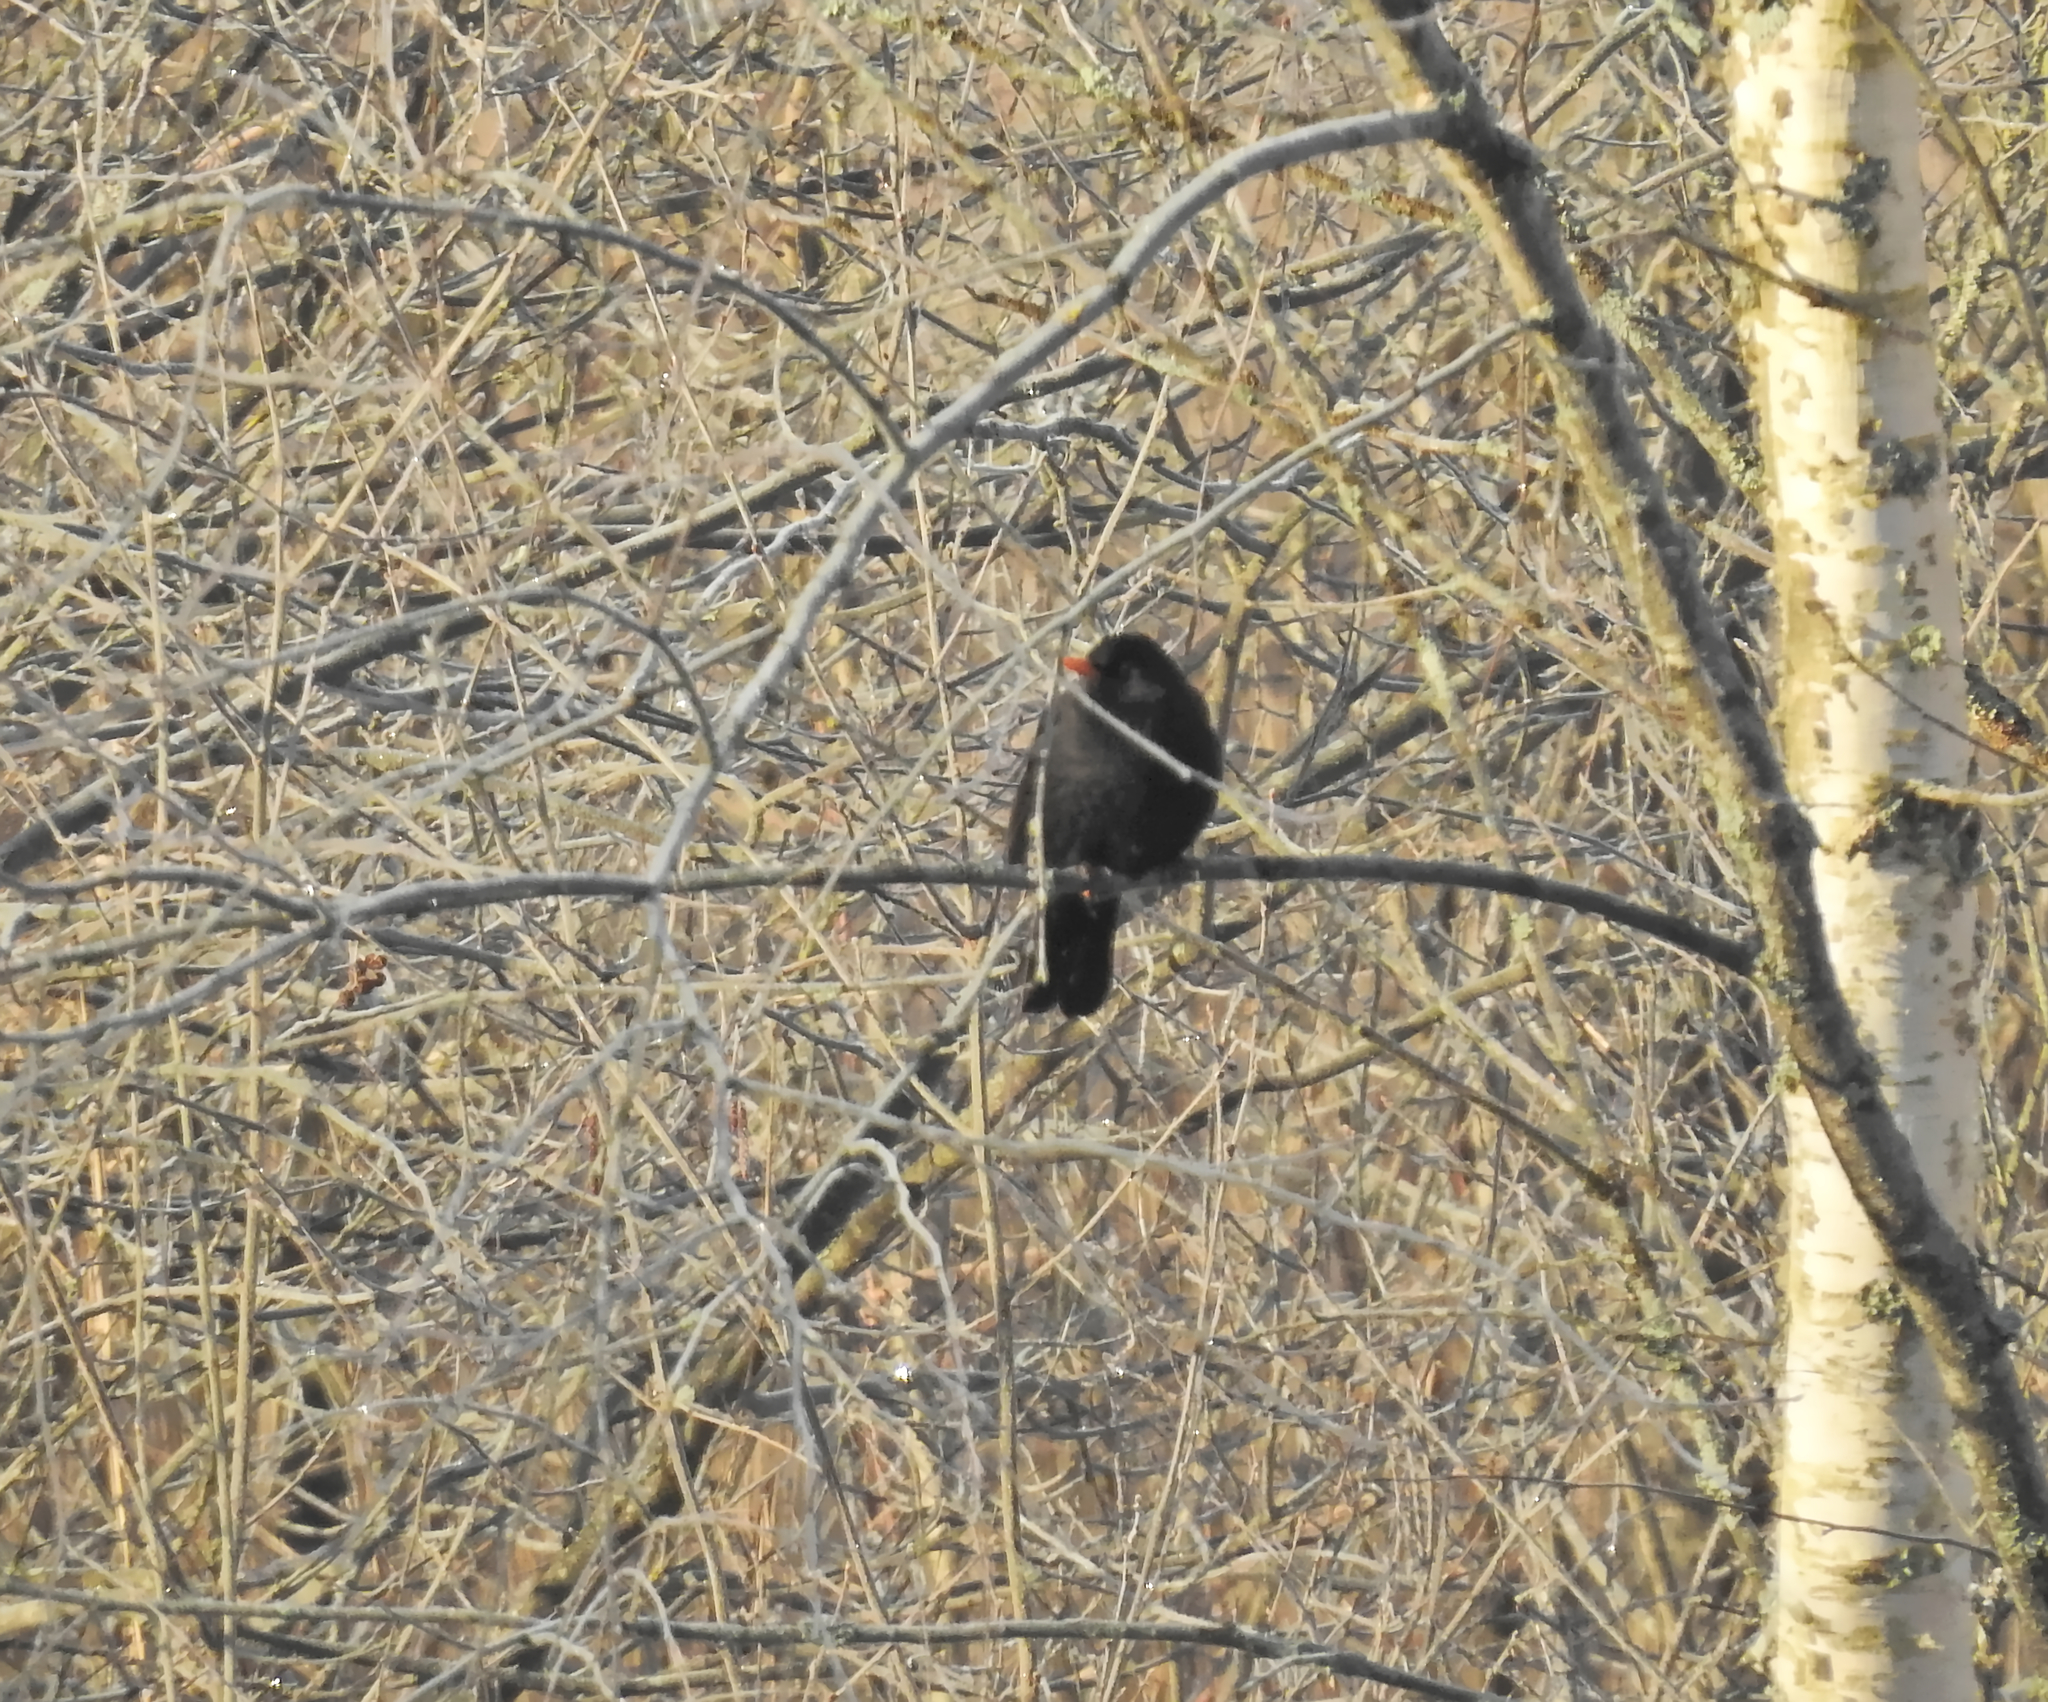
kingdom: Animalia
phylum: Chordata
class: Aves
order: Passeriformes
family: Turdidae
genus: Turdus
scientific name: Turdus merula
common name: Common blackbird
